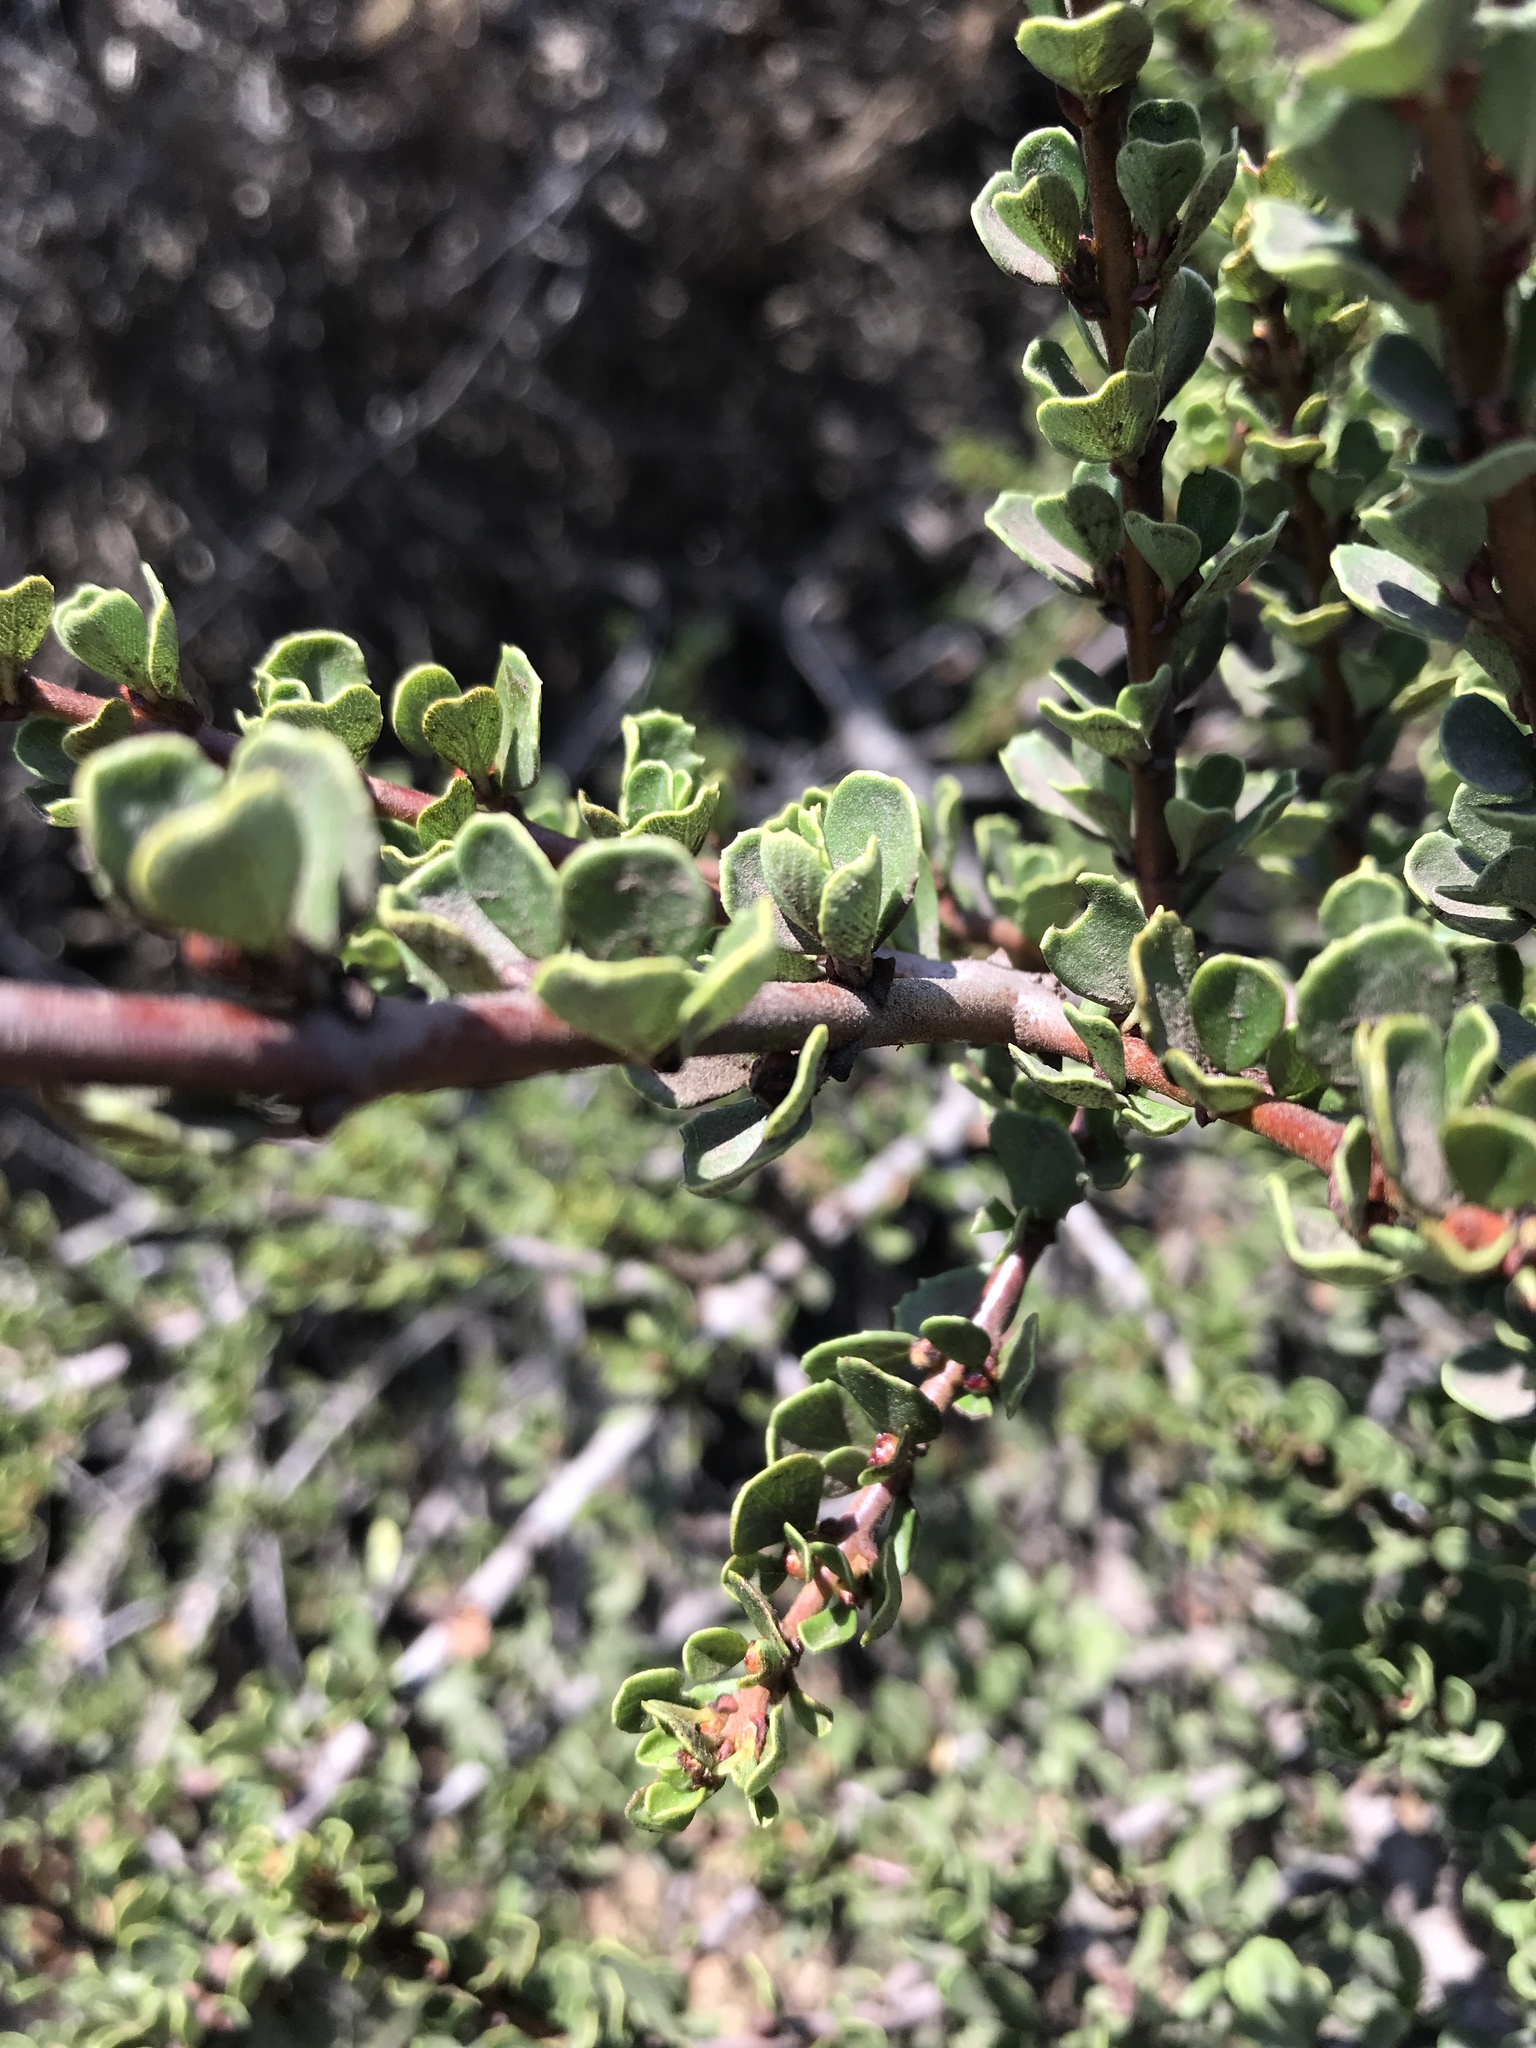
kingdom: Plantae
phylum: Tracheophyta
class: Magnoliopsida
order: Rosales
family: Rhamnaceae
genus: Ceanothus
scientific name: Ceanothus cuneatus
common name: Cuneate ceanothus
